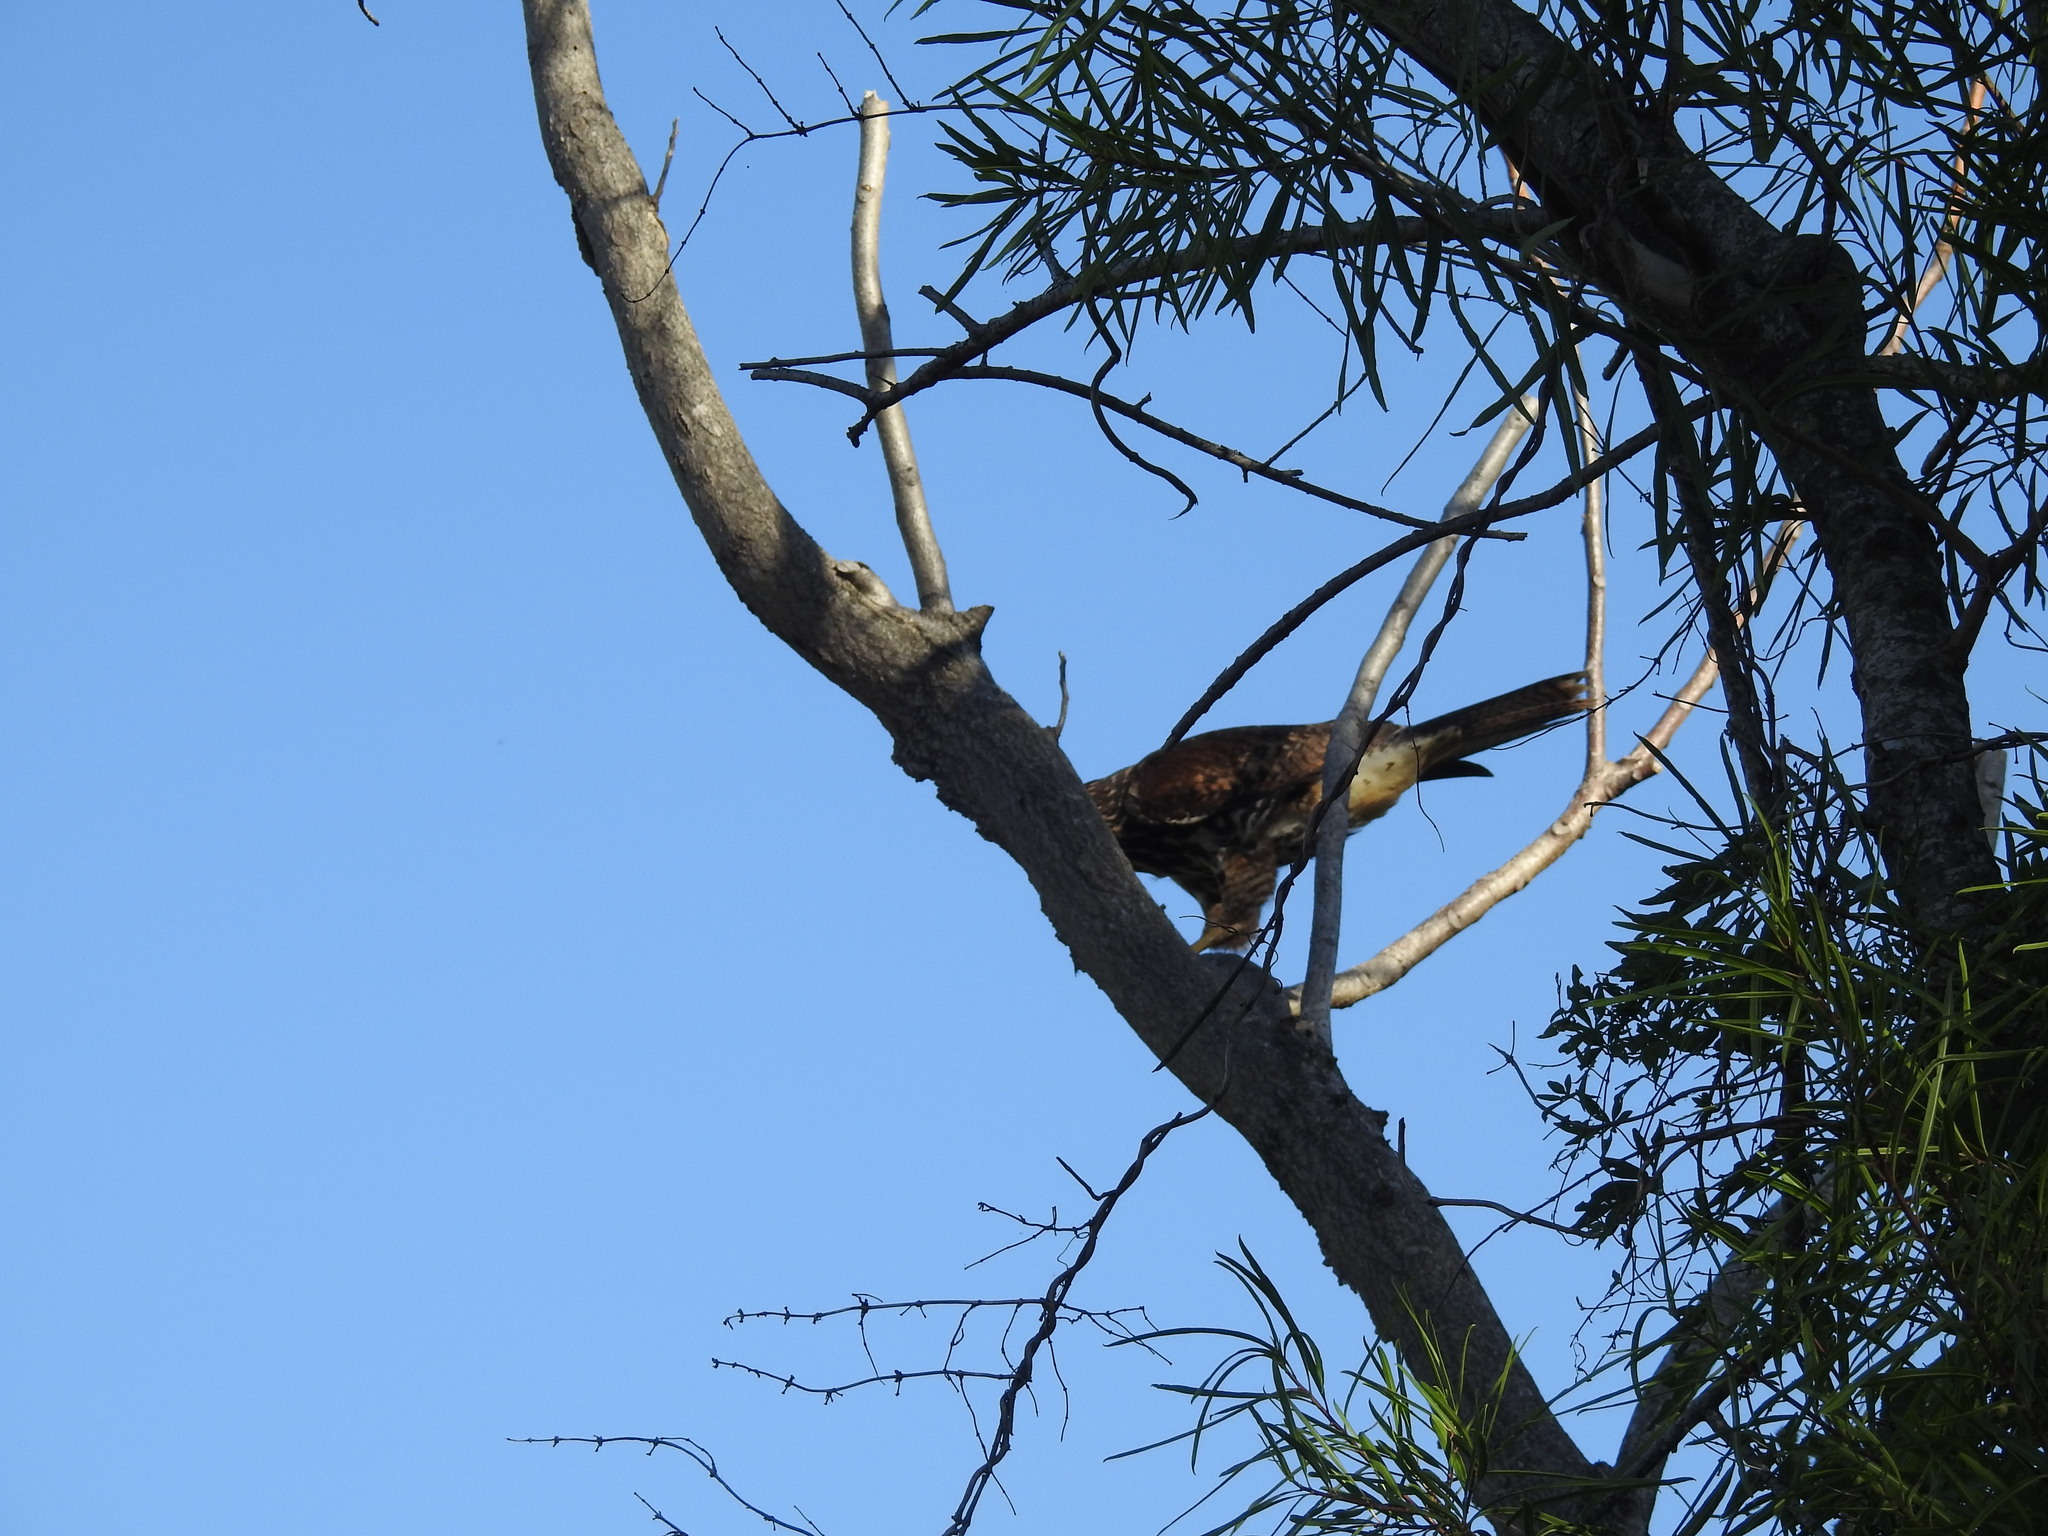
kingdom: Animalia
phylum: Chordata
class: Aves
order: Accipitriformes
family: Accipitridae
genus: Parabuteo
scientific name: Parabuteo unicinctus
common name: Harris's hawk
